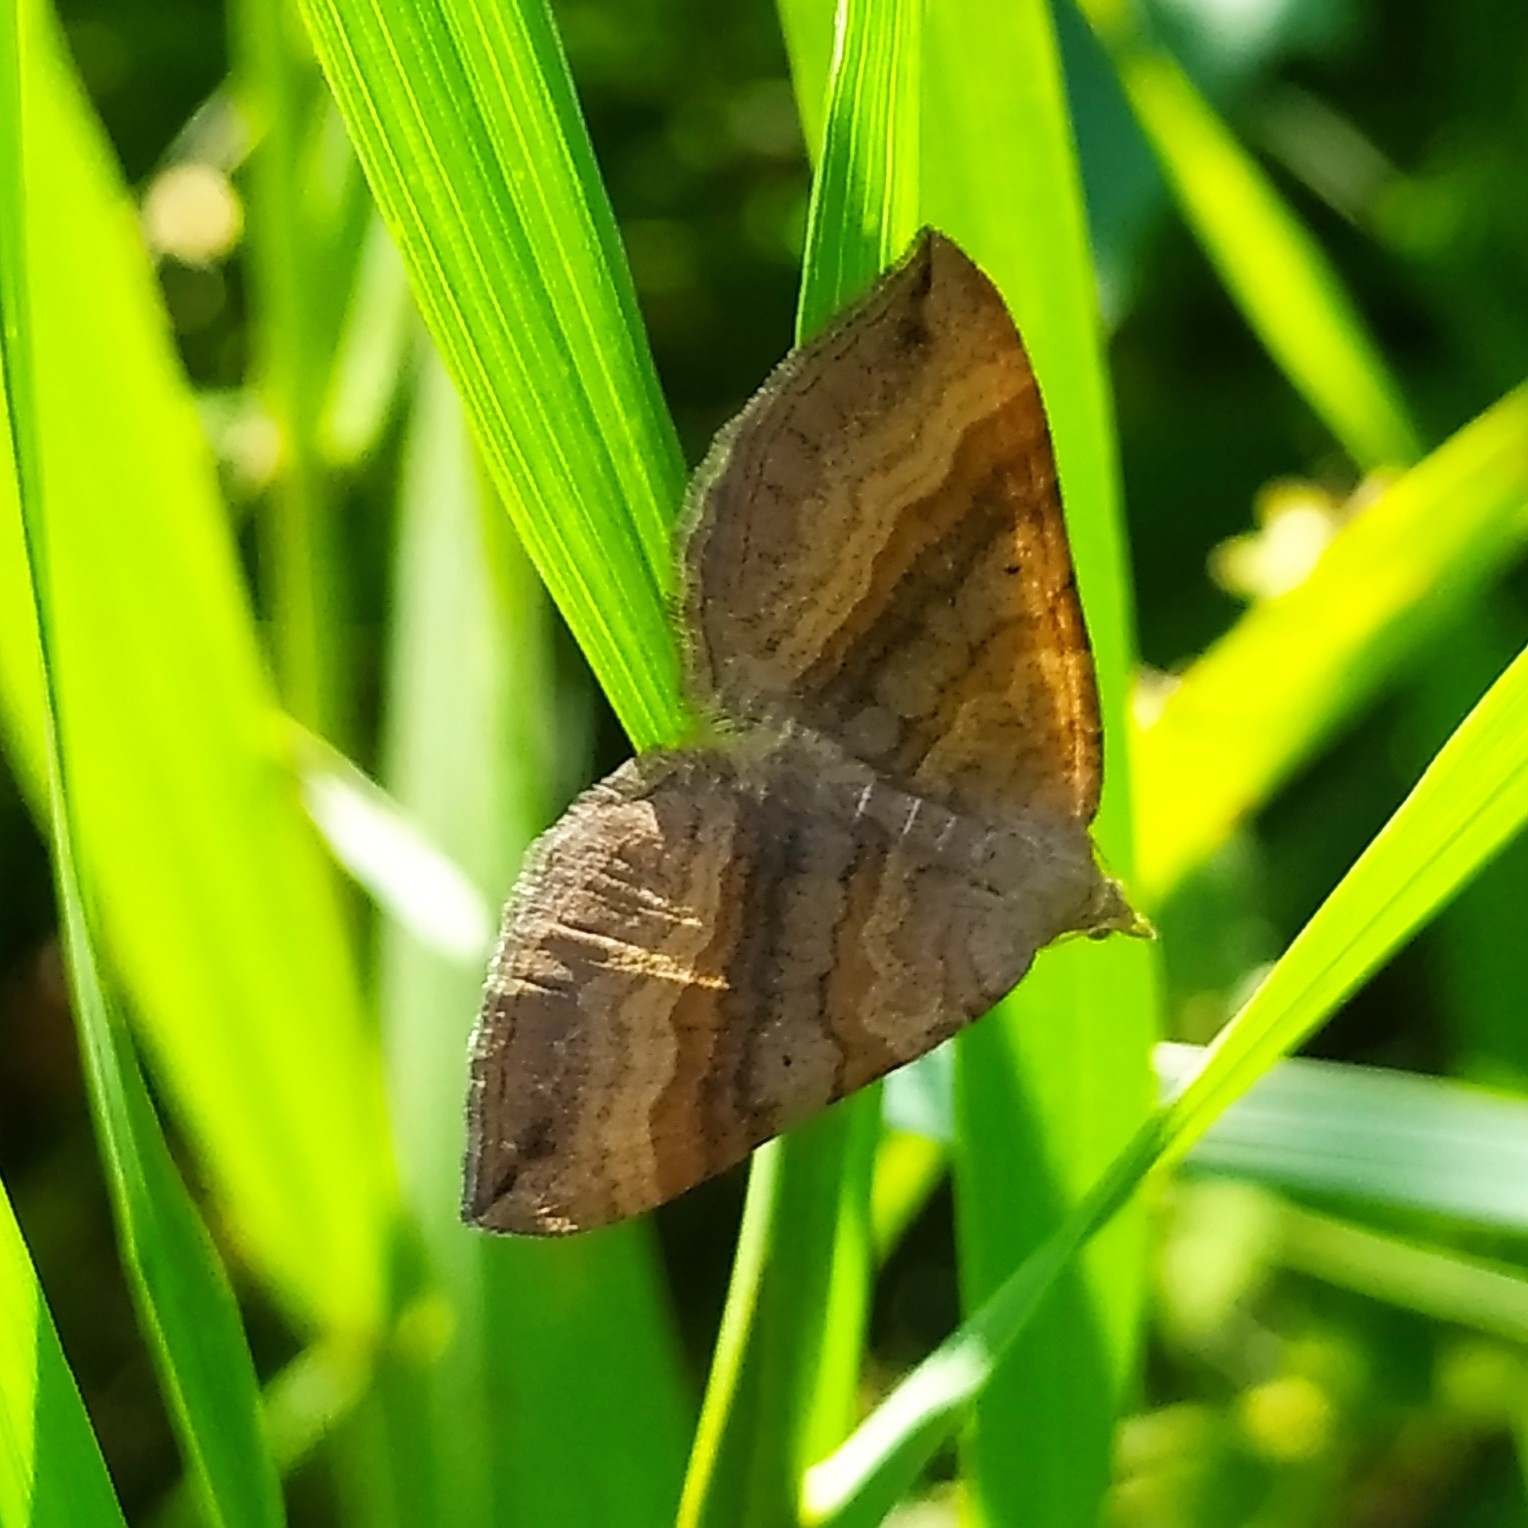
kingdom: Animalia
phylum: Arthropoda
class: Insecta
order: Lepidoptera
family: Geometridae
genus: Scotopteryx
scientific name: Scotopteryx chenopodiata
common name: Shaded broad-bar
